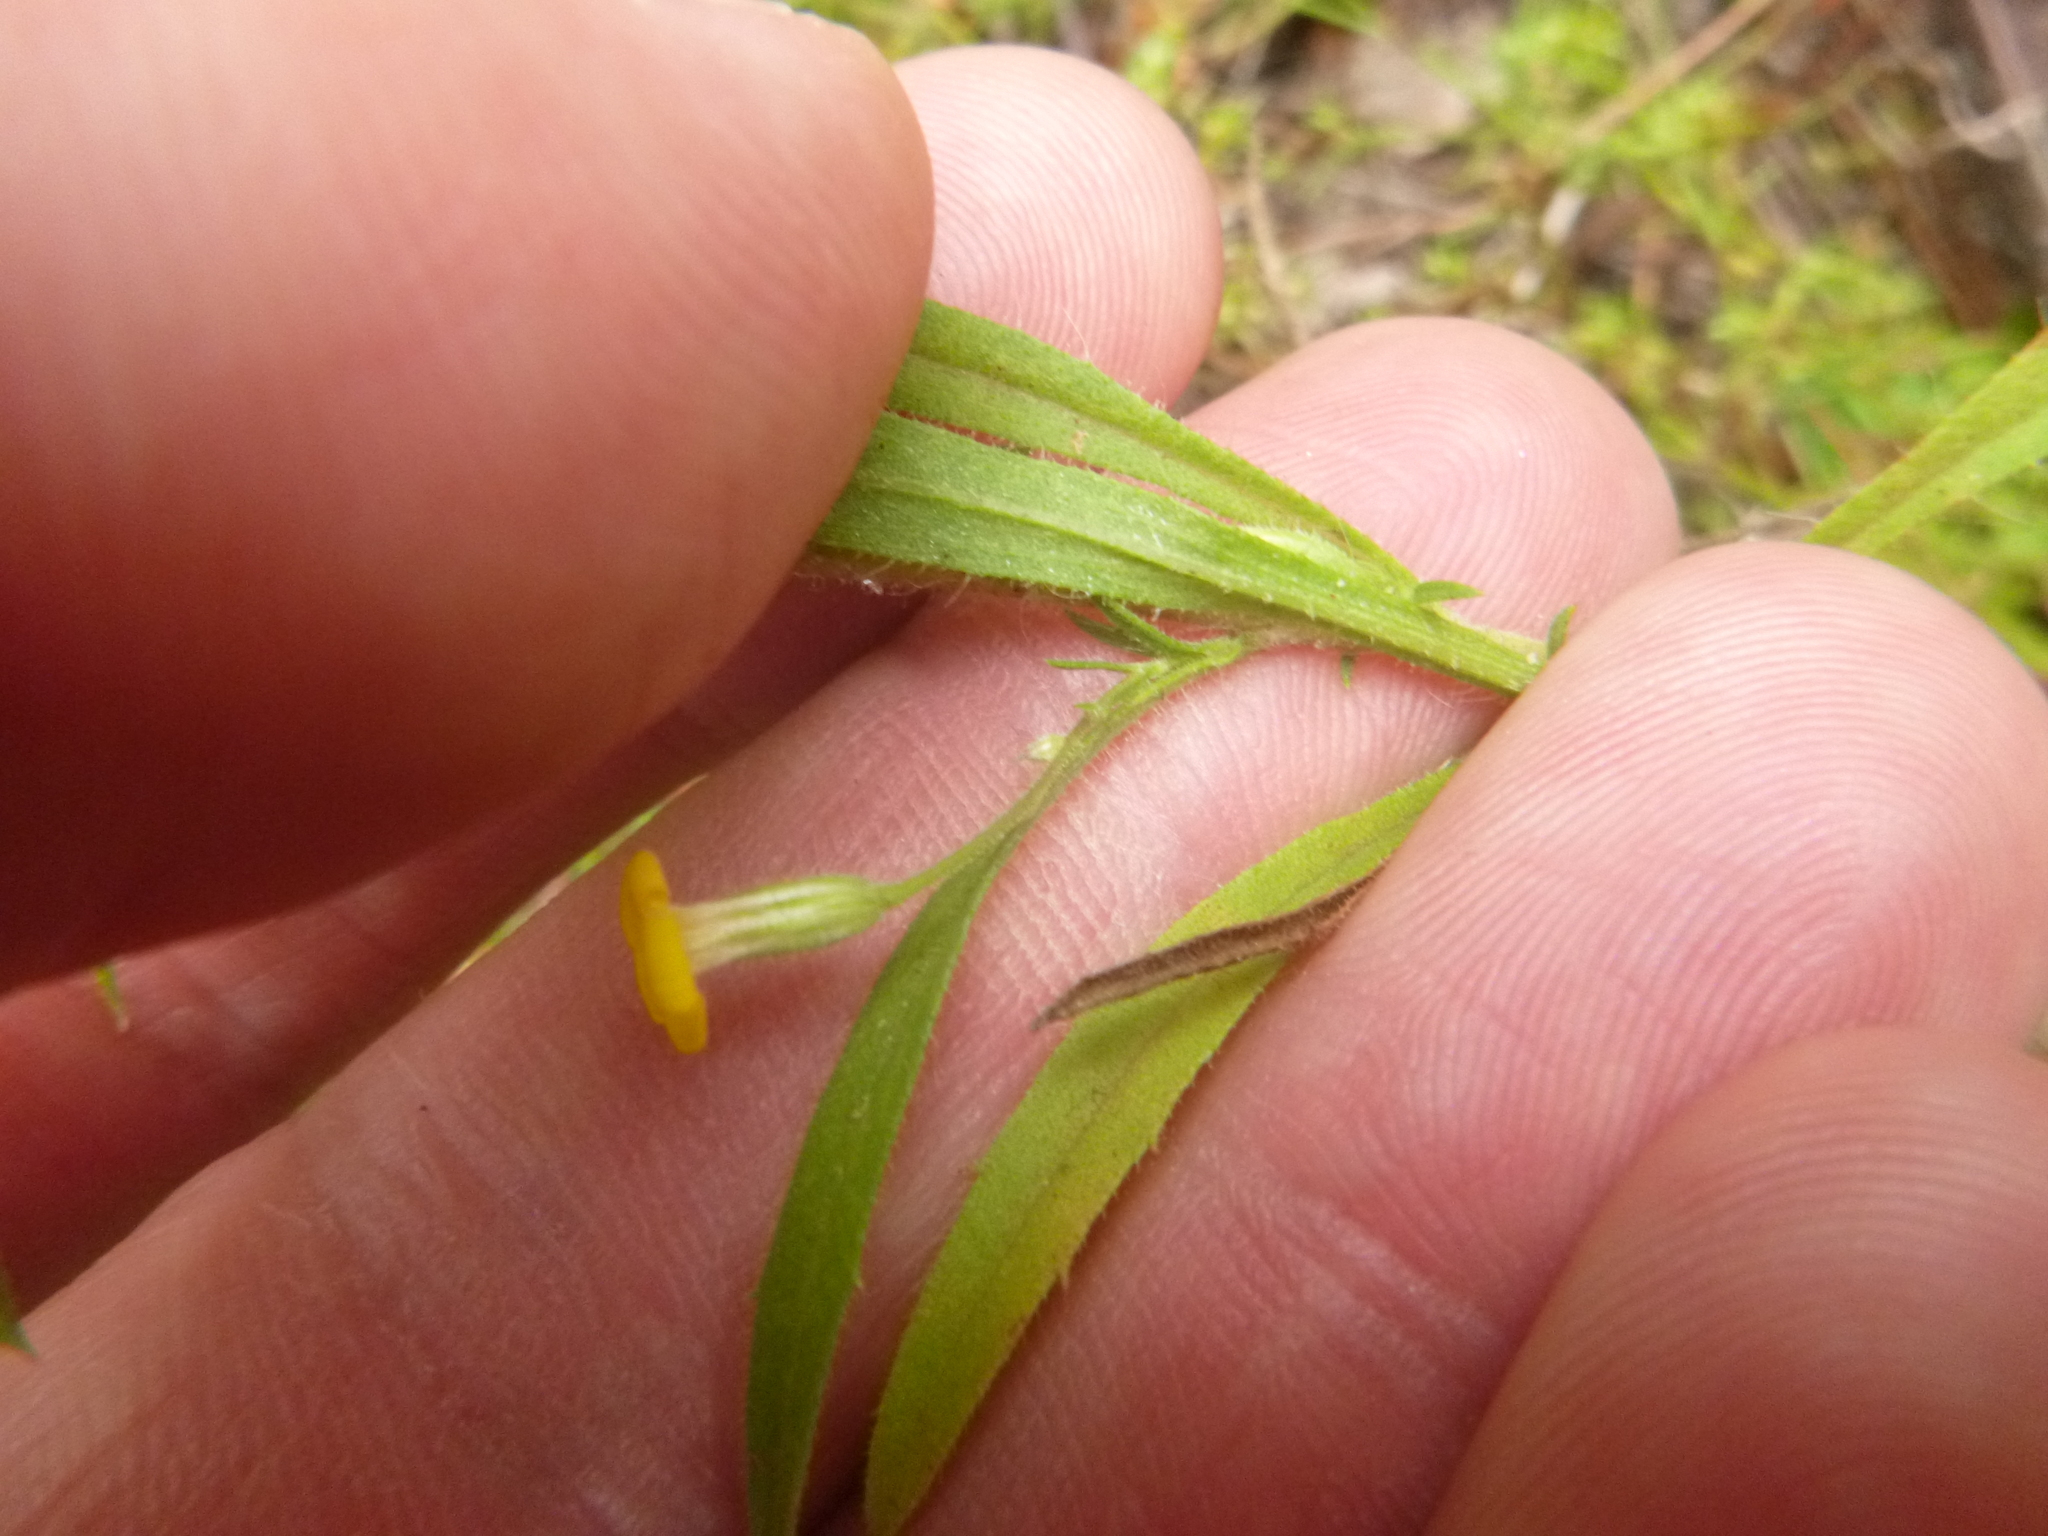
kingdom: Plantae
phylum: Tracheophyta
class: Magnoliopsida
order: Asterales
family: Asteraceae
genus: Croptilon
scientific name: Croptilon divaricatum
